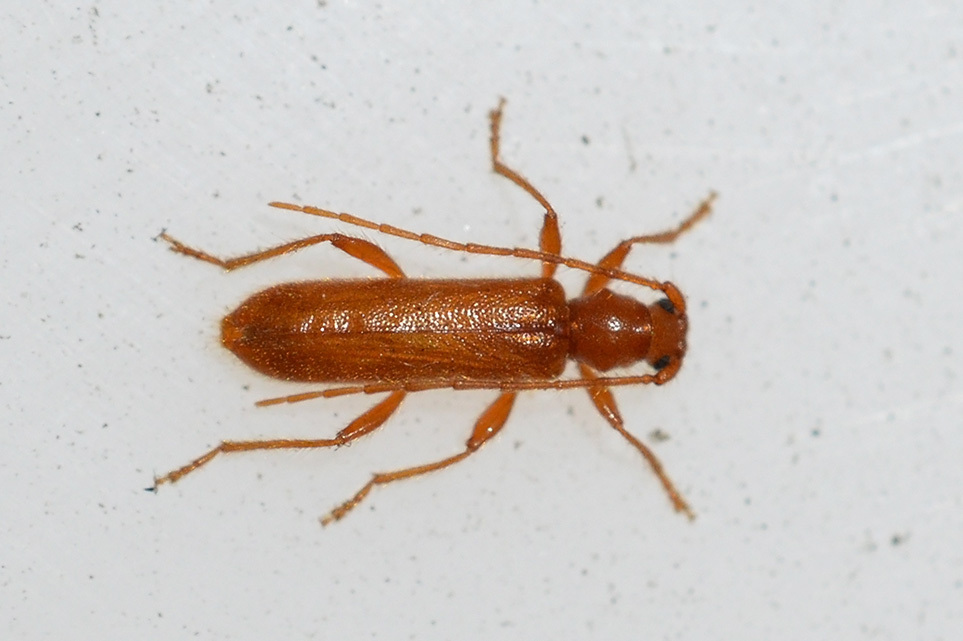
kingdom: Animalia
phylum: Arthropoda
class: Insecta
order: Coleoptera
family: Cerambycidae
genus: Axinopalpis
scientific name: Axinopalpis gracilis
